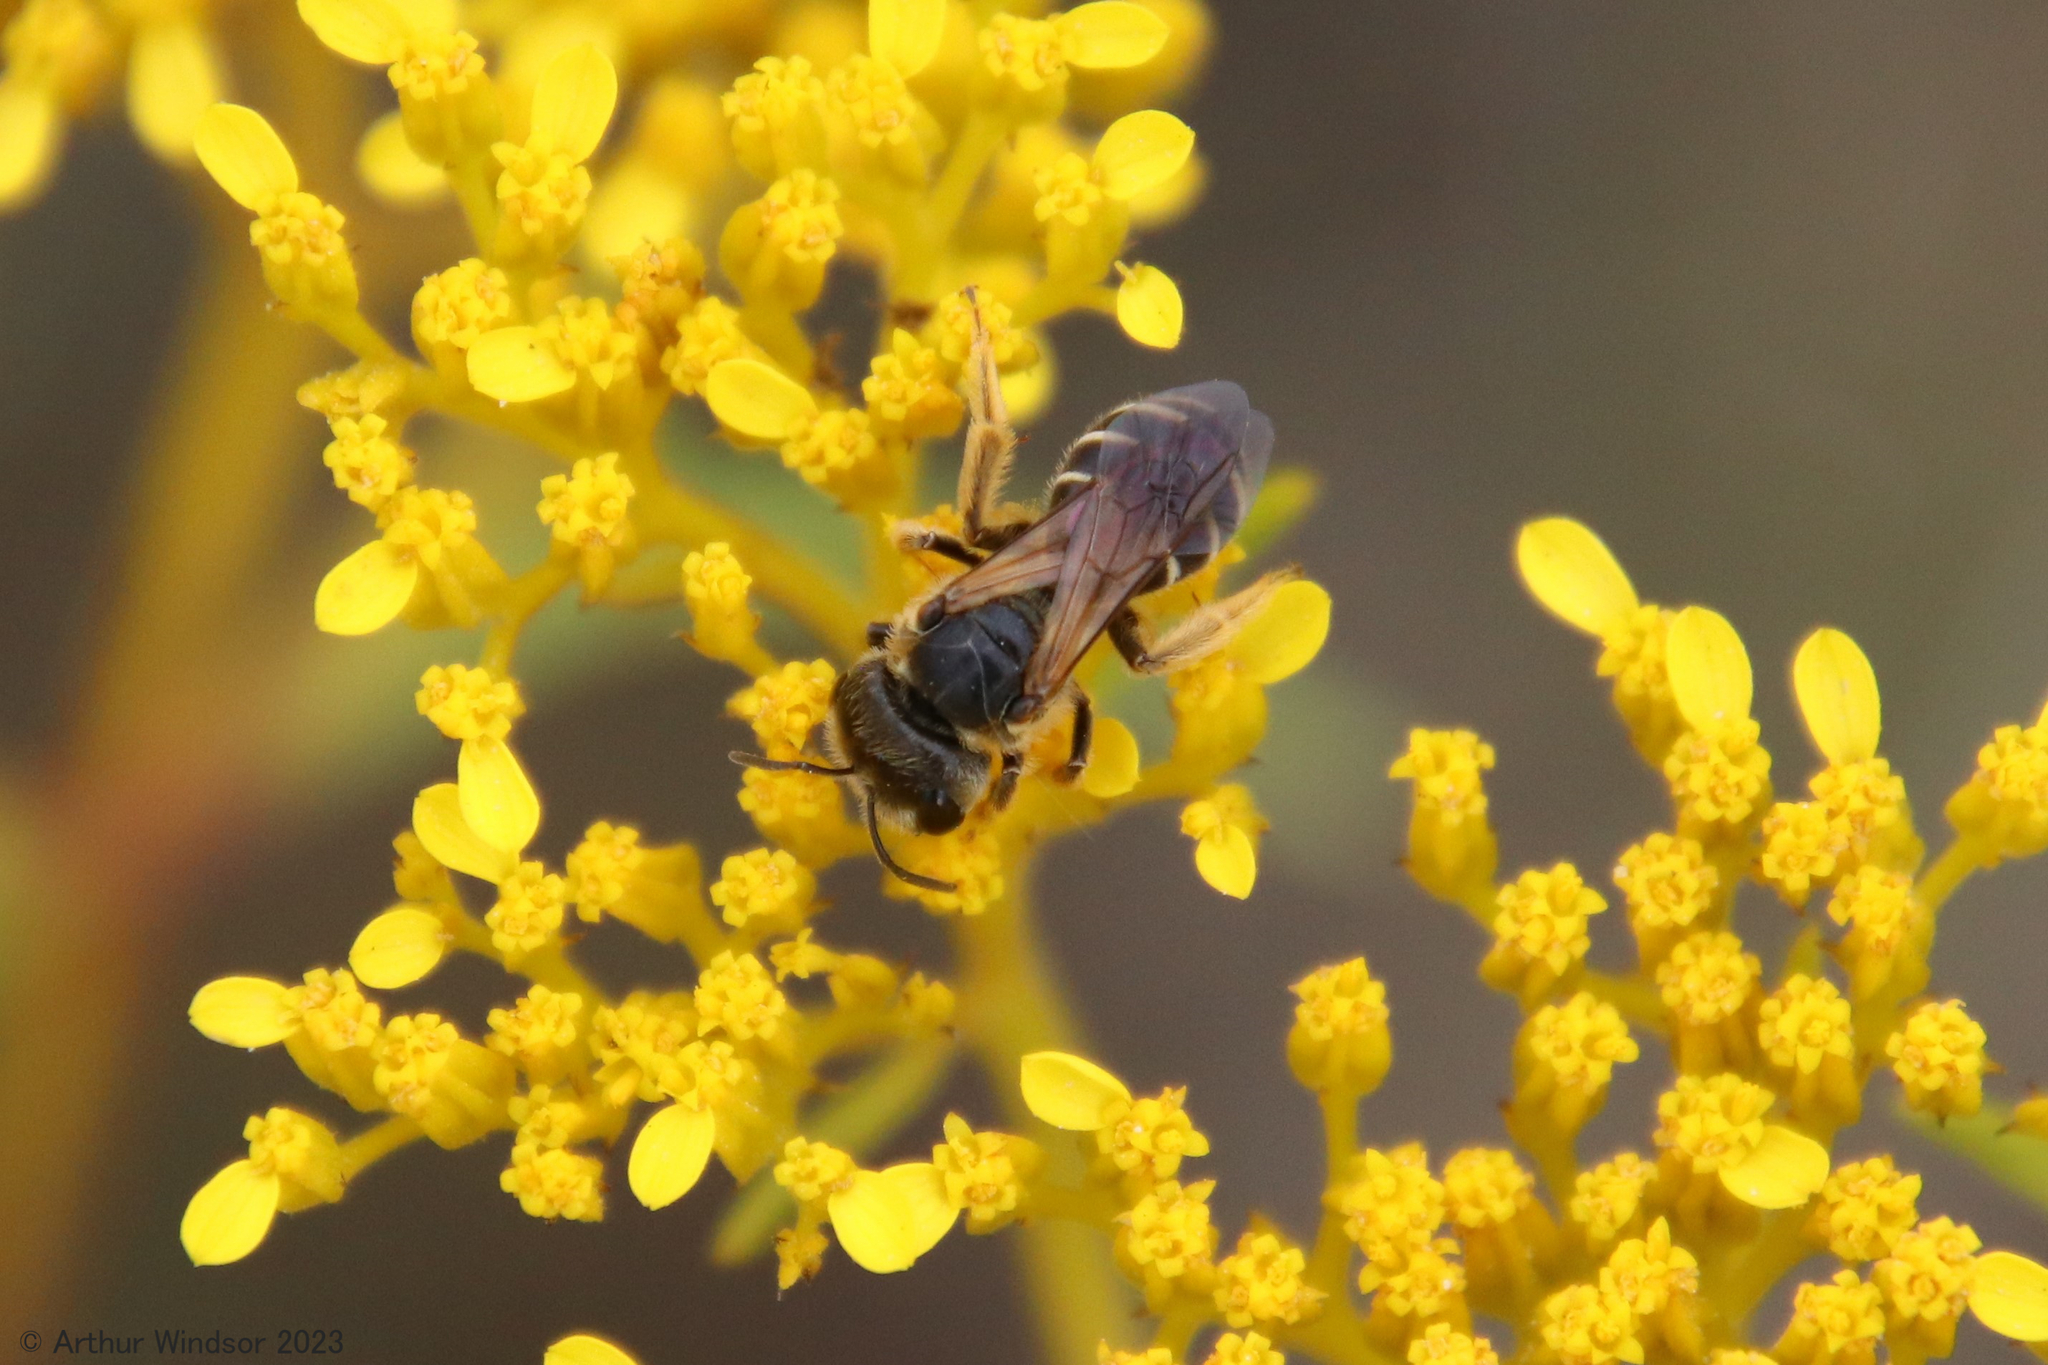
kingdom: Animalia
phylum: Arthropoda
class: Insecta
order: Hymenoptera
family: Halictidae
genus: Halictus
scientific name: Halictus poeyi
